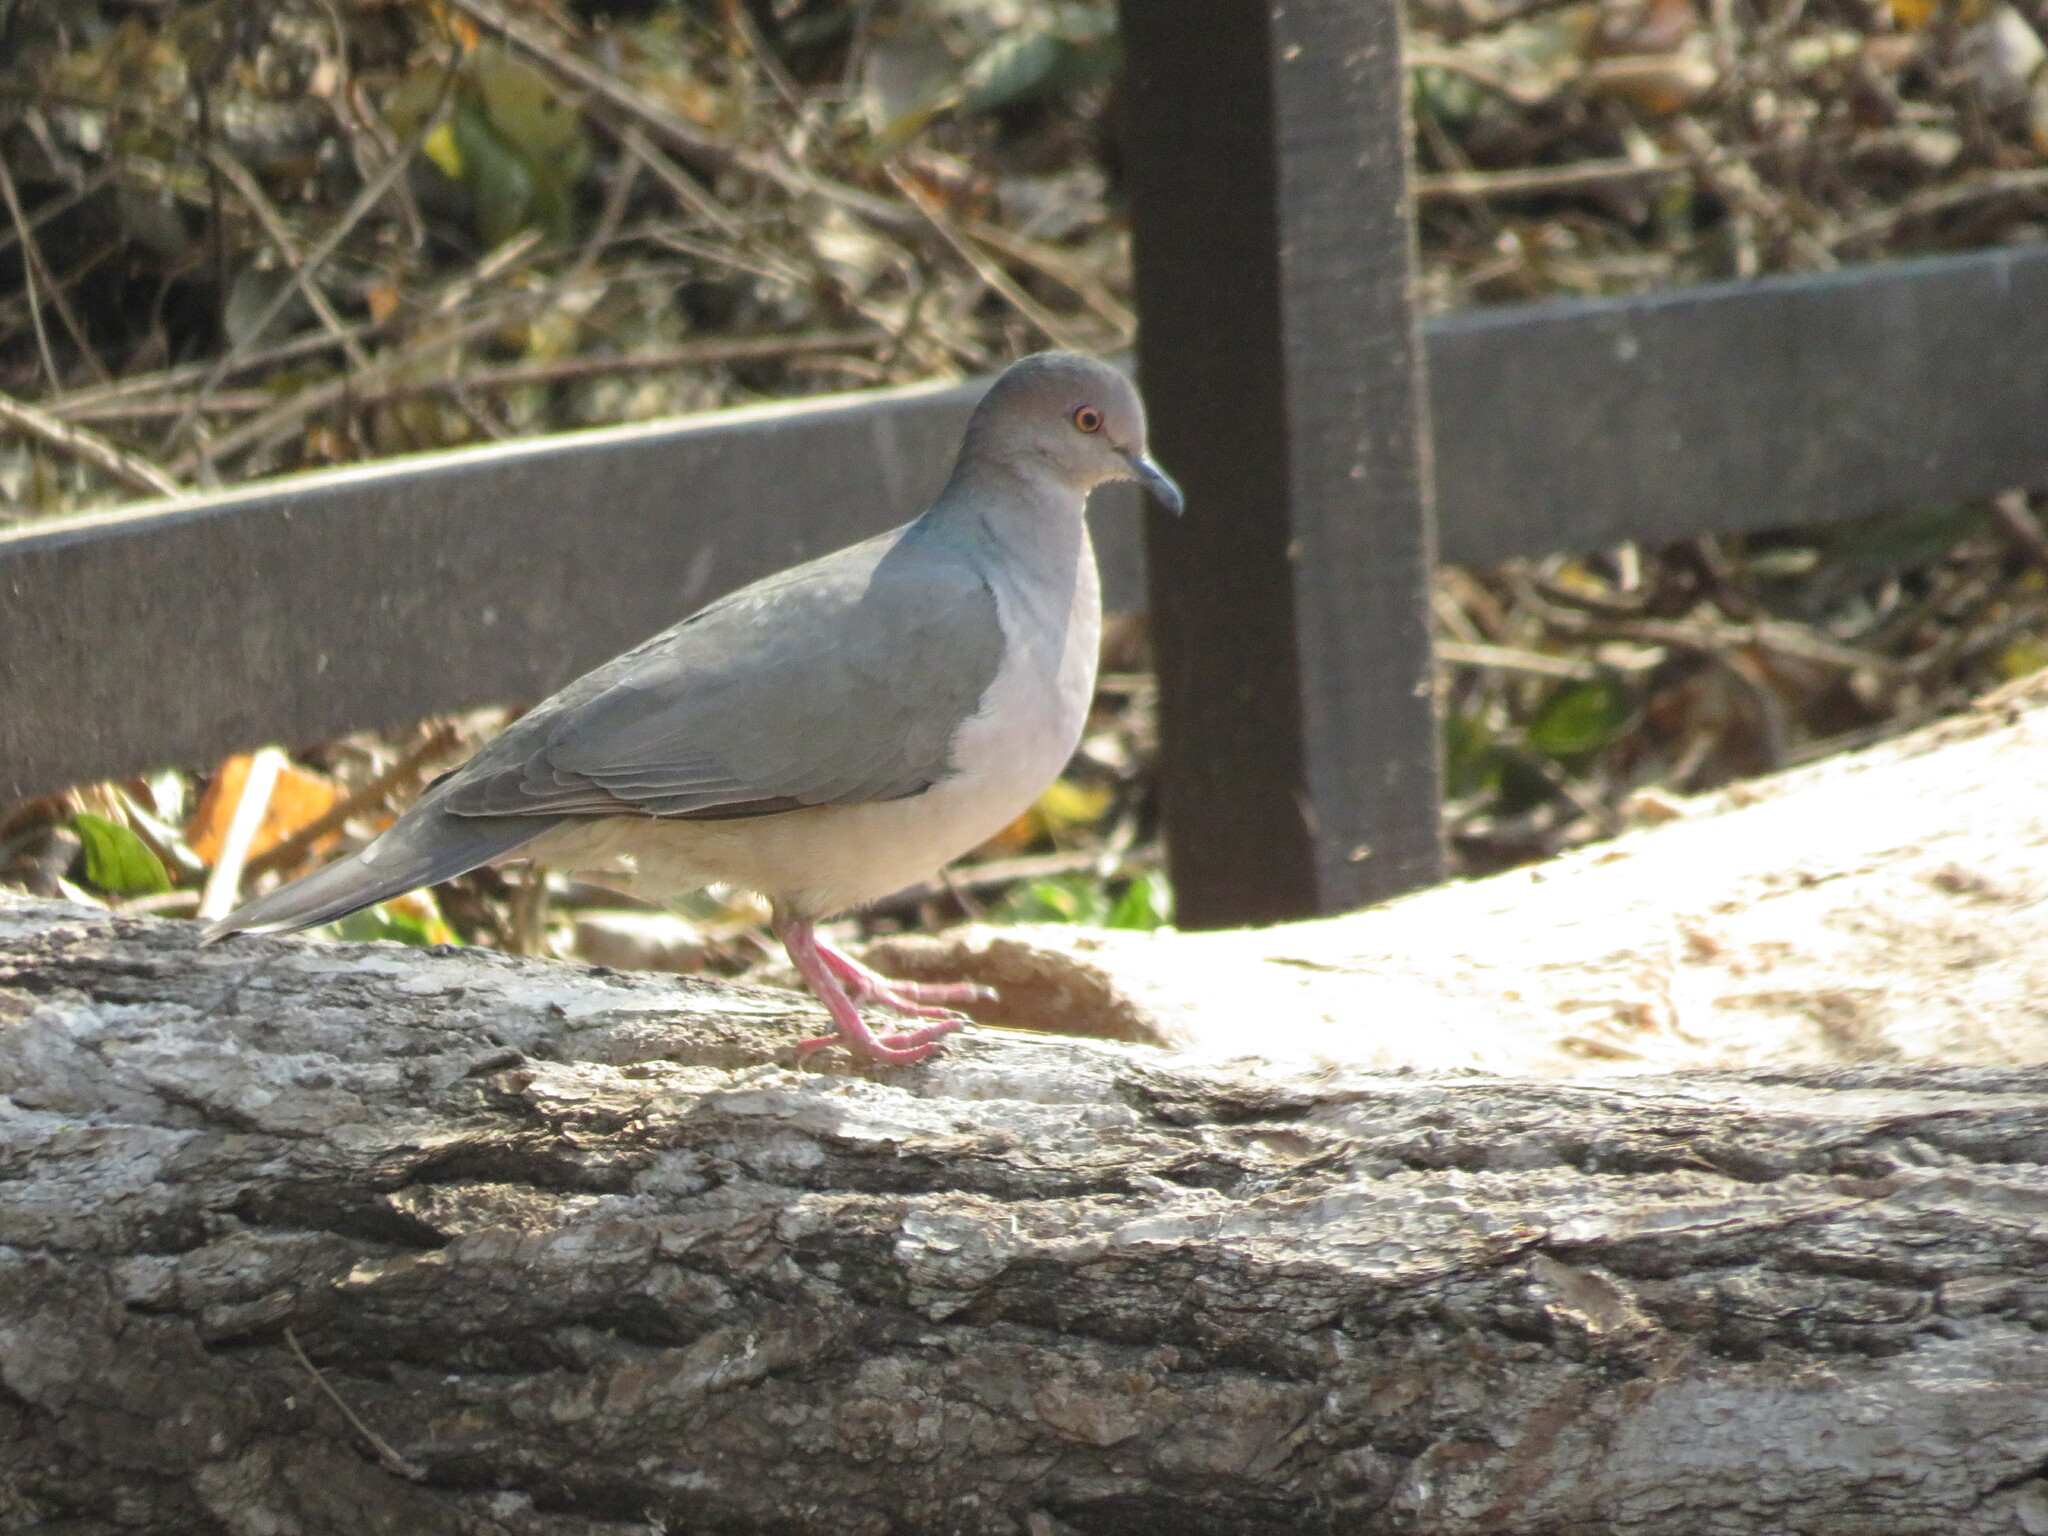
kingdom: Animalia
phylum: Chordata
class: Aves
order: Columbiformes
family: Columbidae
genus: Leptotila
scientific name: Leptotila verreauxi
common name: White-tipped dove
